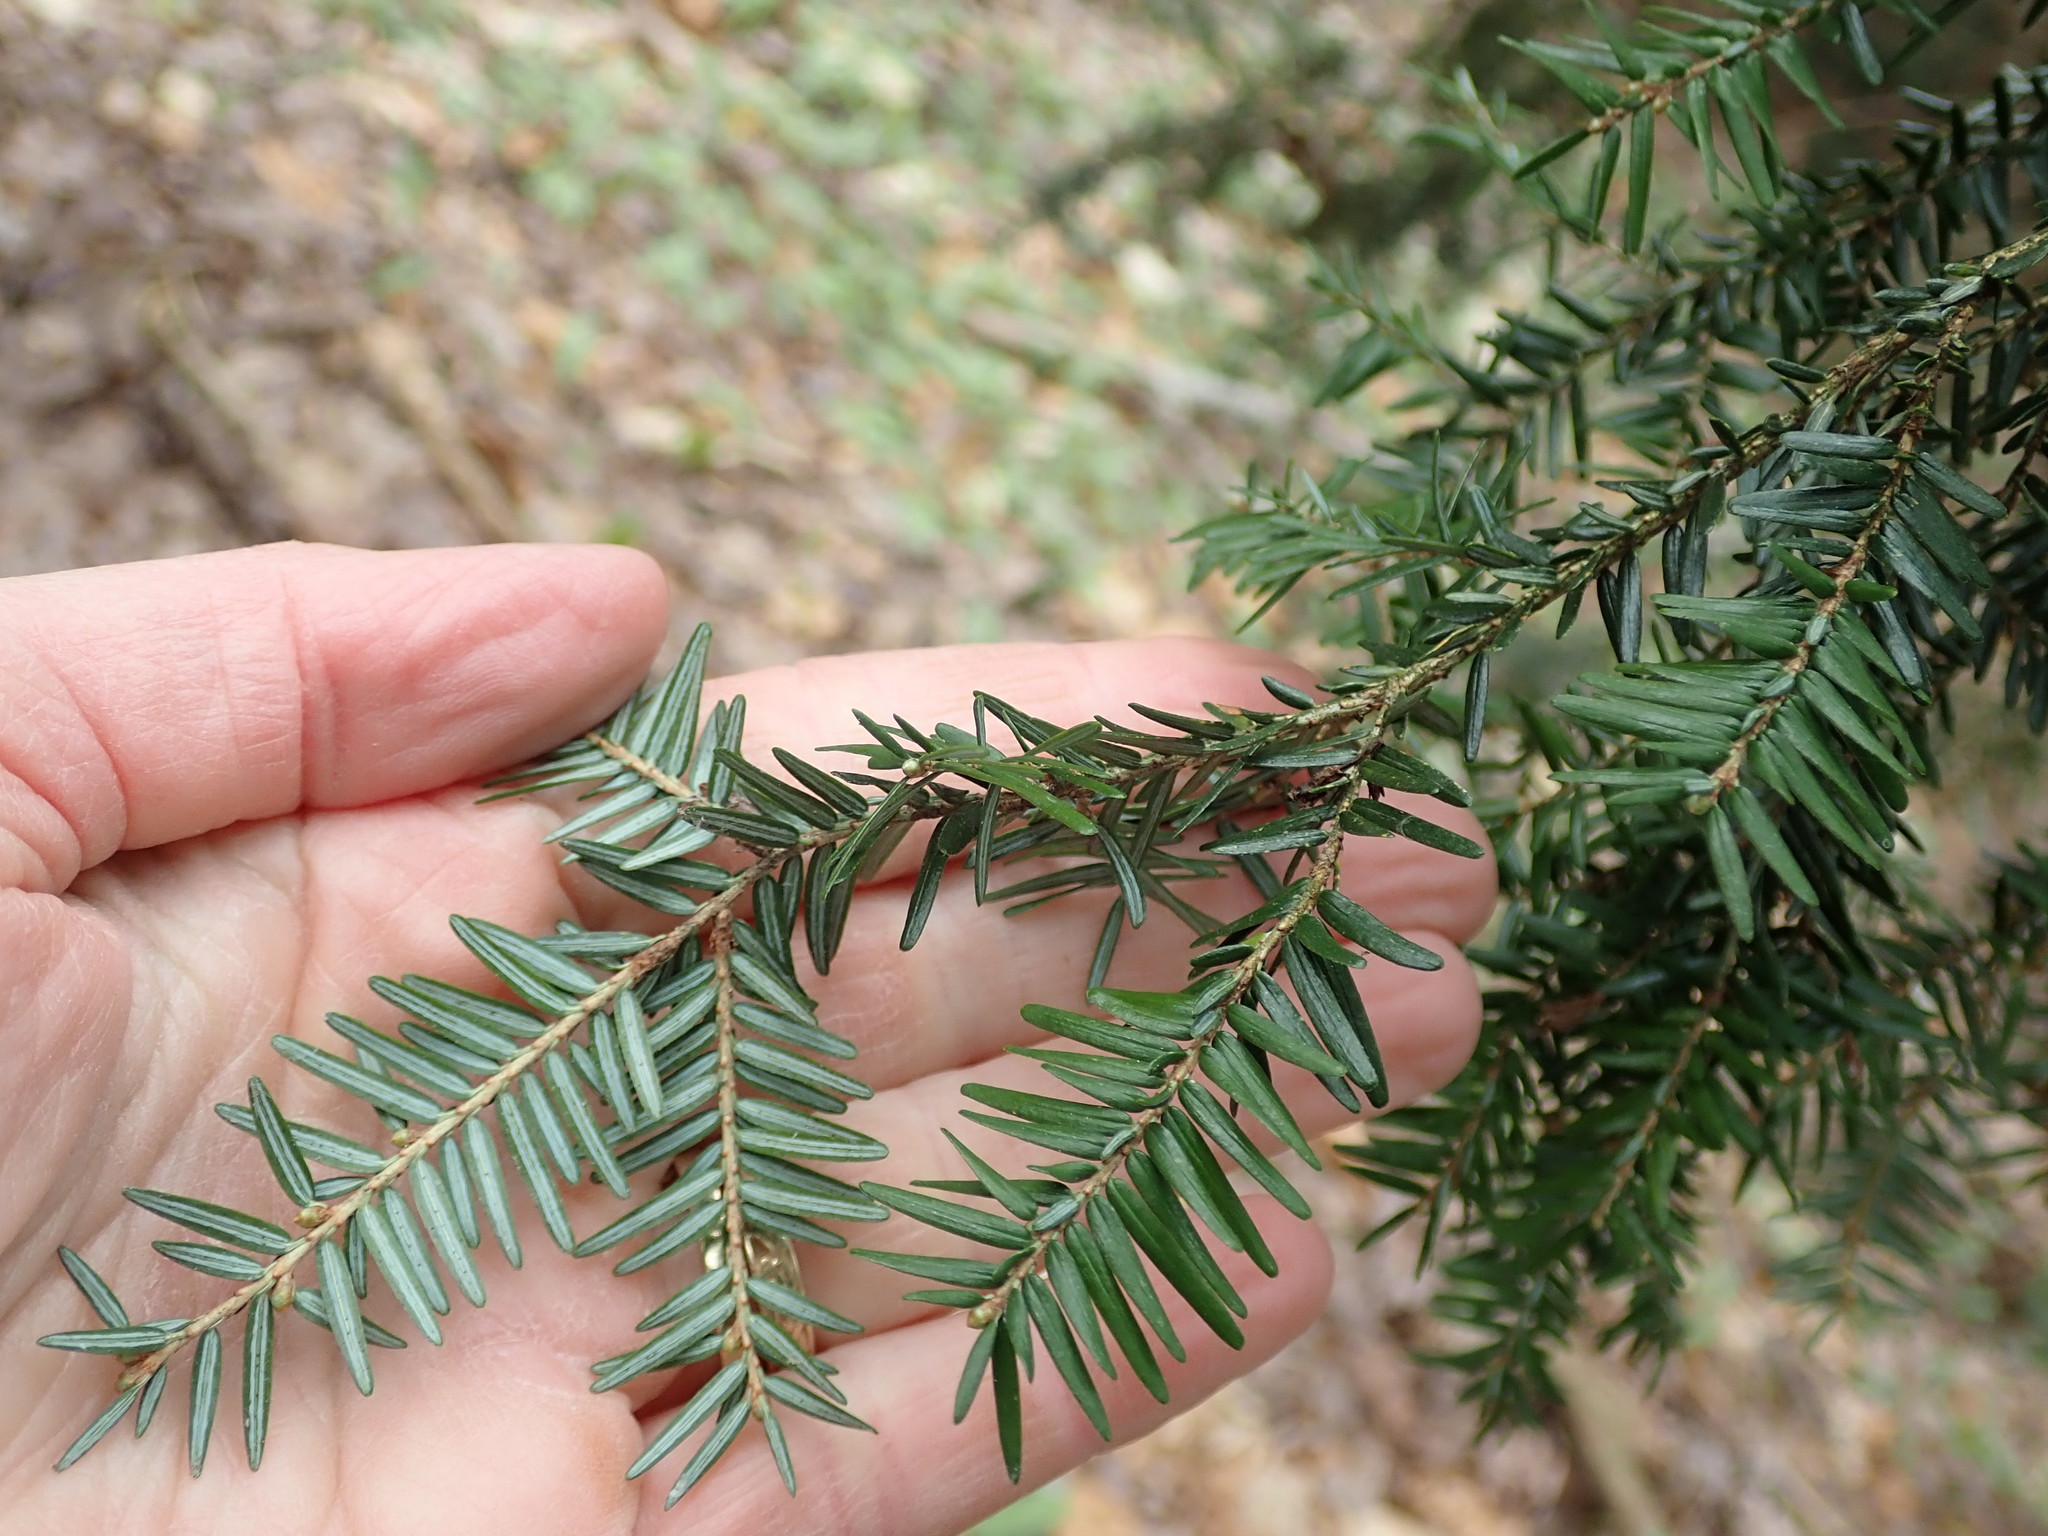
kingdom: Plantae
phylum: Tracheophyta
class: Pinopsida
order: Pinales
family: Pinaceae
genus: Tsuga
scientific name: Tsuga canadensis
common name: Eastern hemlock
